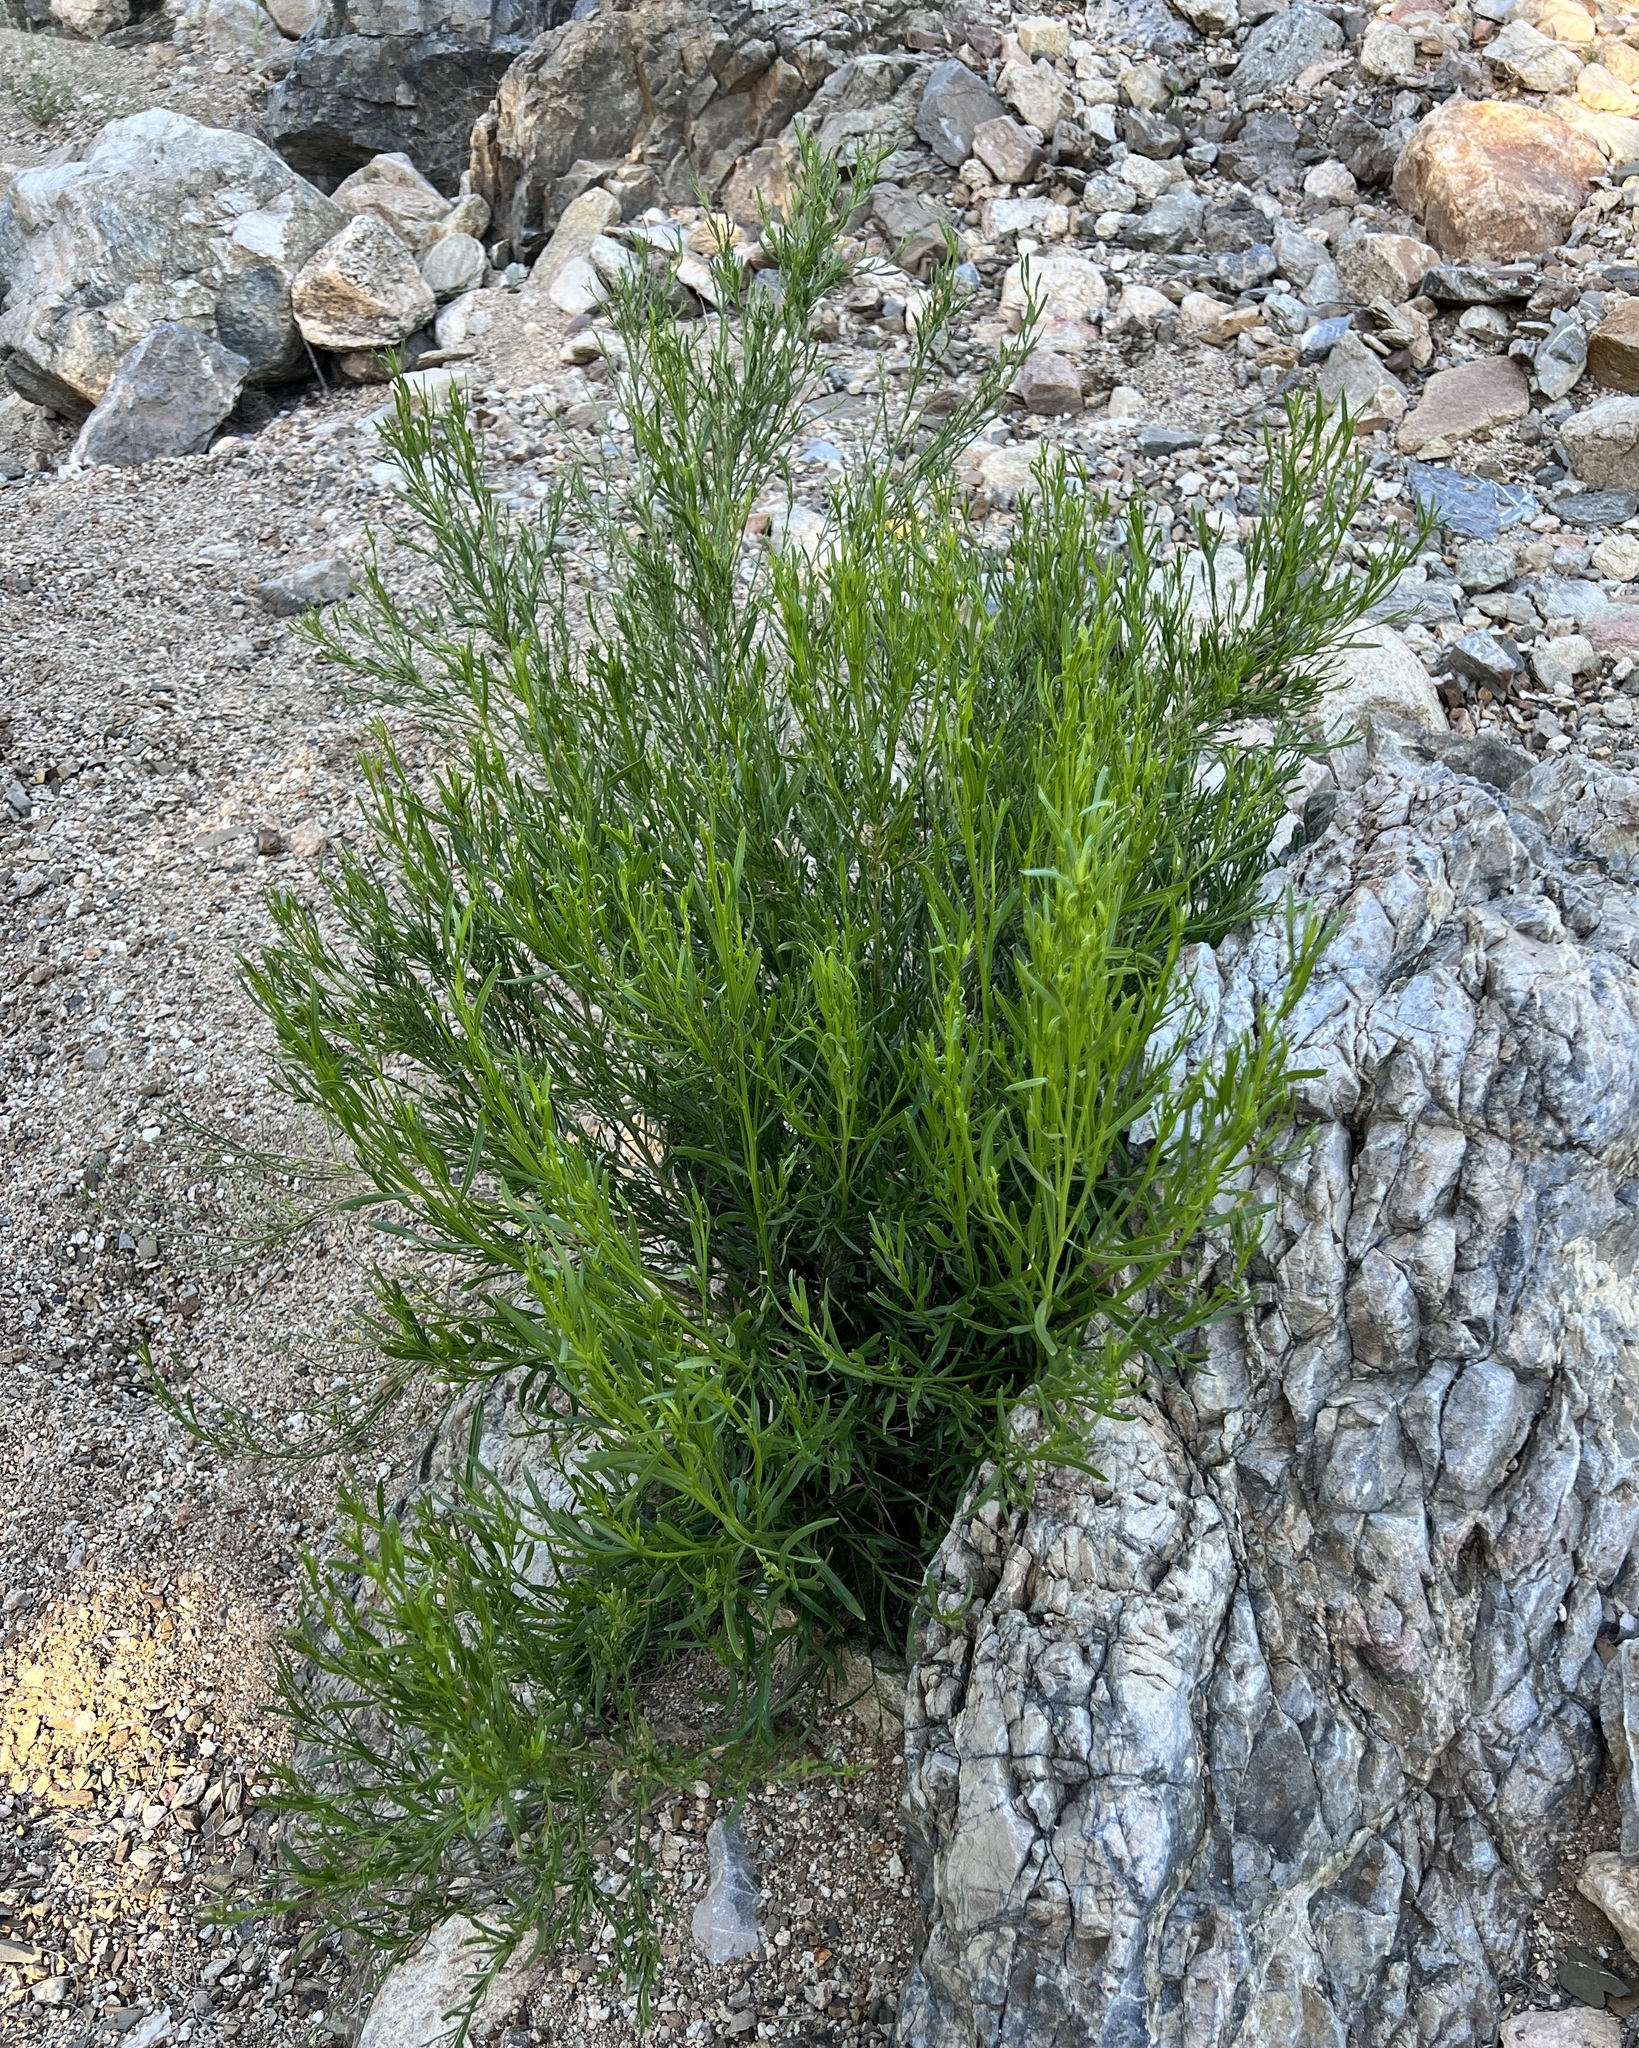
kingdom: Plantae
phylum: Tracheophyta
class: Magnoliopsida
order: Asterales
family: Asteraceae
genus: Baccharis
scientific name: Baccharis sarothroides
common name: Desert-broom
